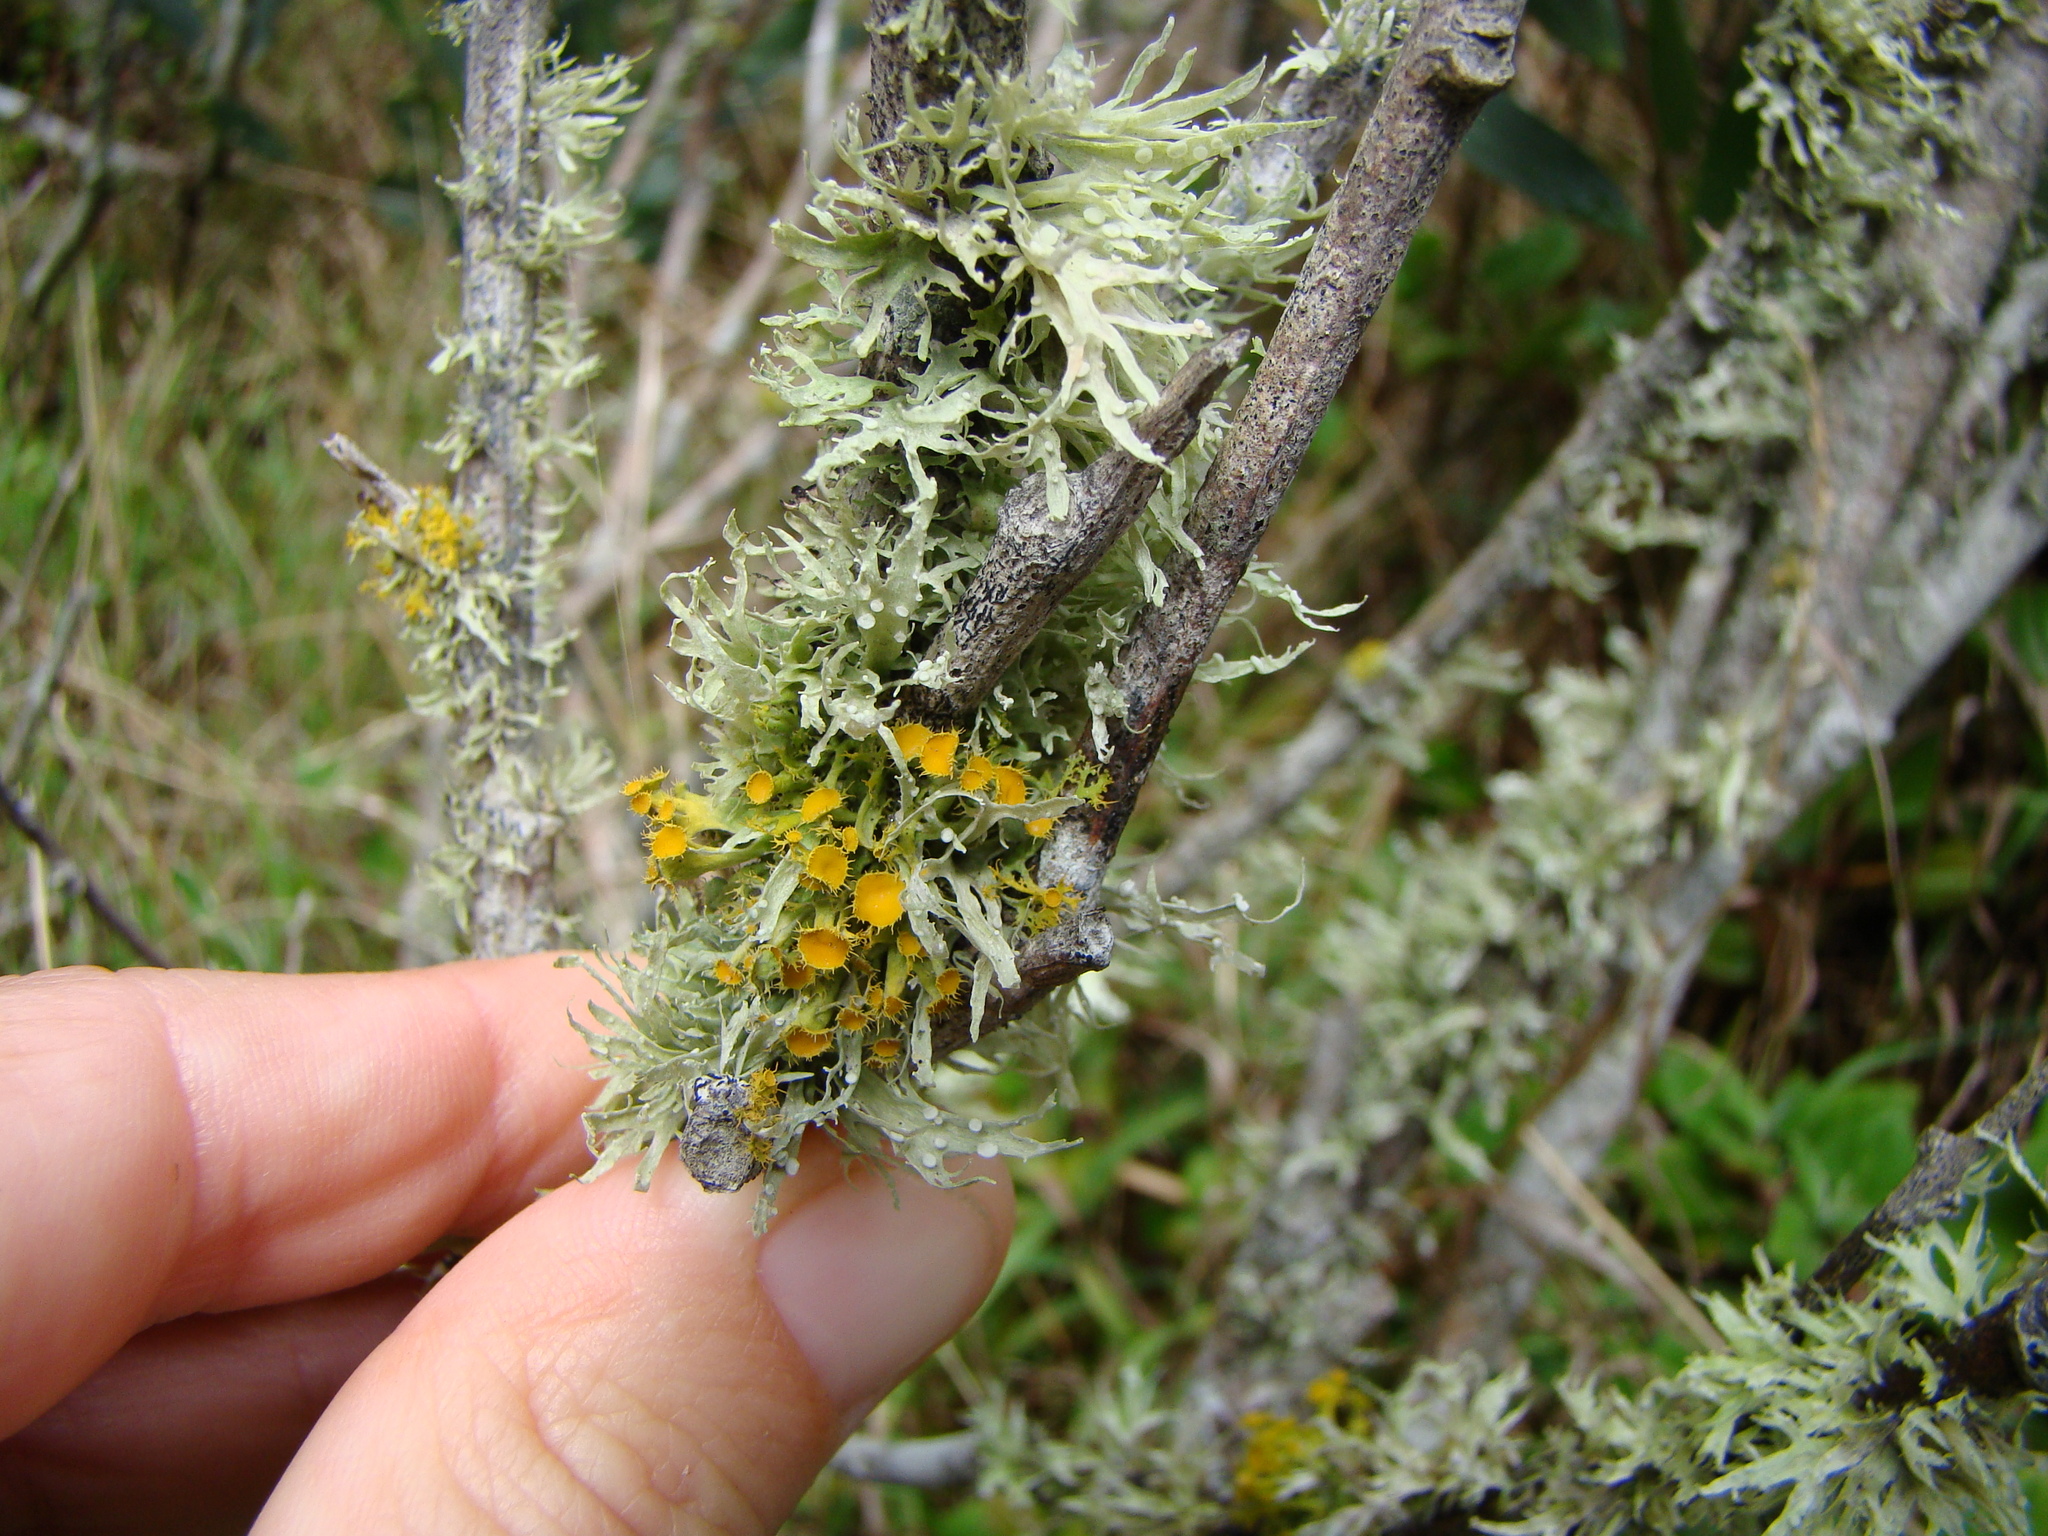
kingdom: Fungi
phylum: Ascomycota
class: Lecanoromycetes
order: Teloschistales
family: Teloschistaceae
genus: Niorma
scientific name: Niorma chrysophthalma
